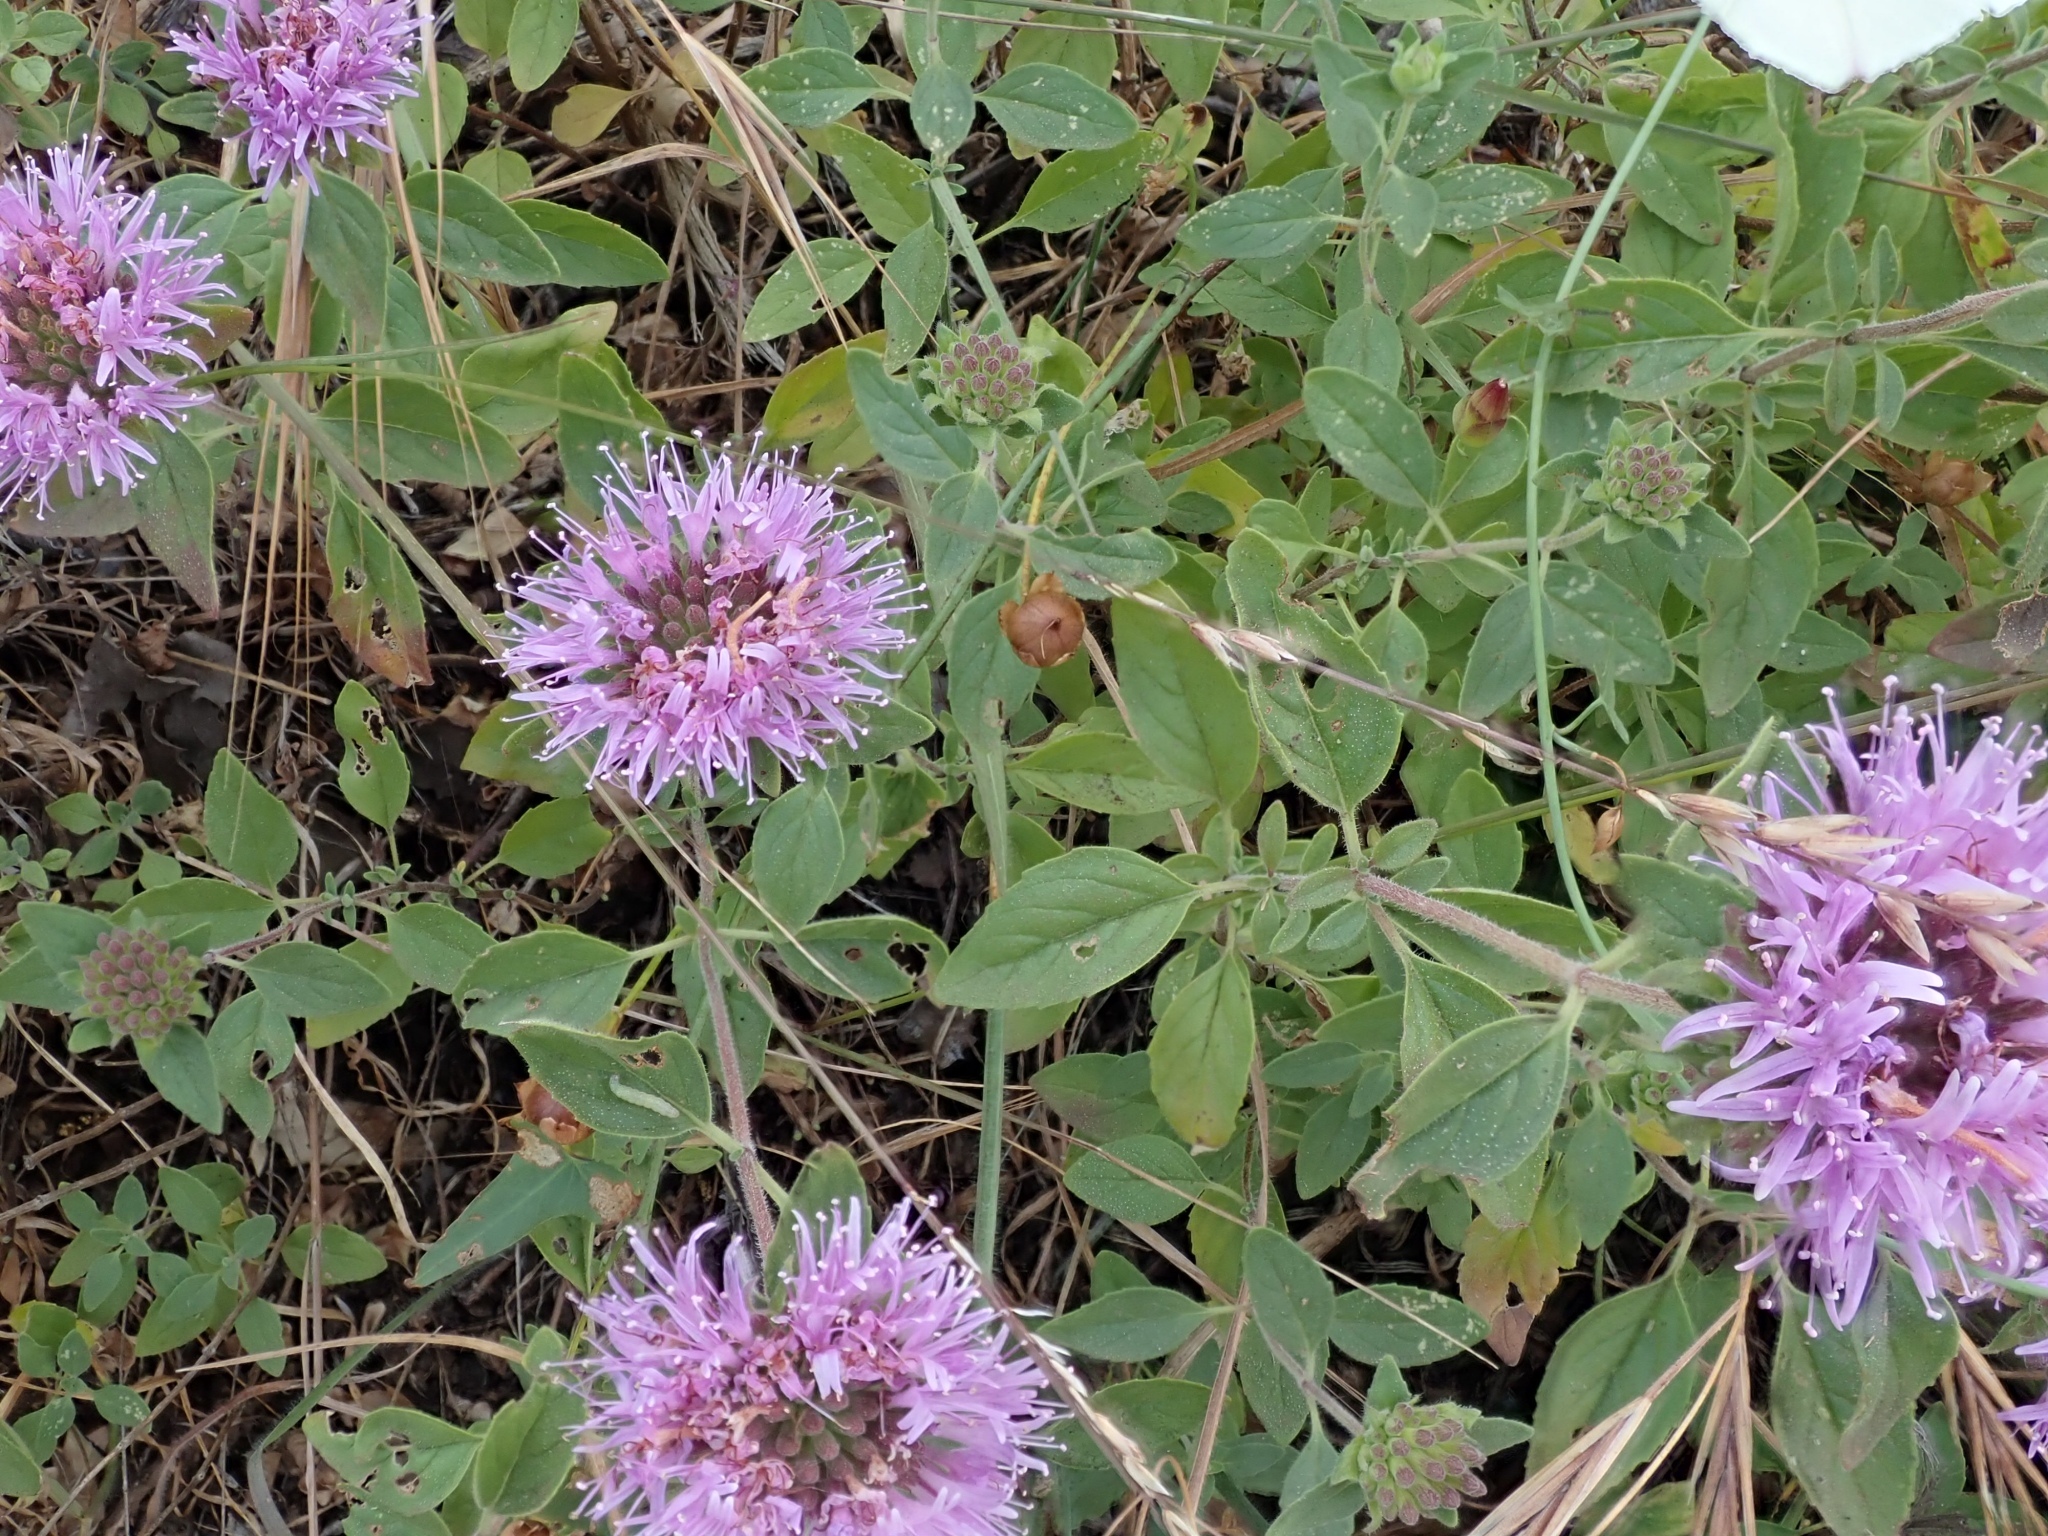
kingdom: Plantae
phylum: Tracheophyta
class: Magnoliopsida
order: Lamiales
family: Lamiaceae
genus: Monardella
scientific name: Monardella odoratissima
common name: Pacific monardella
